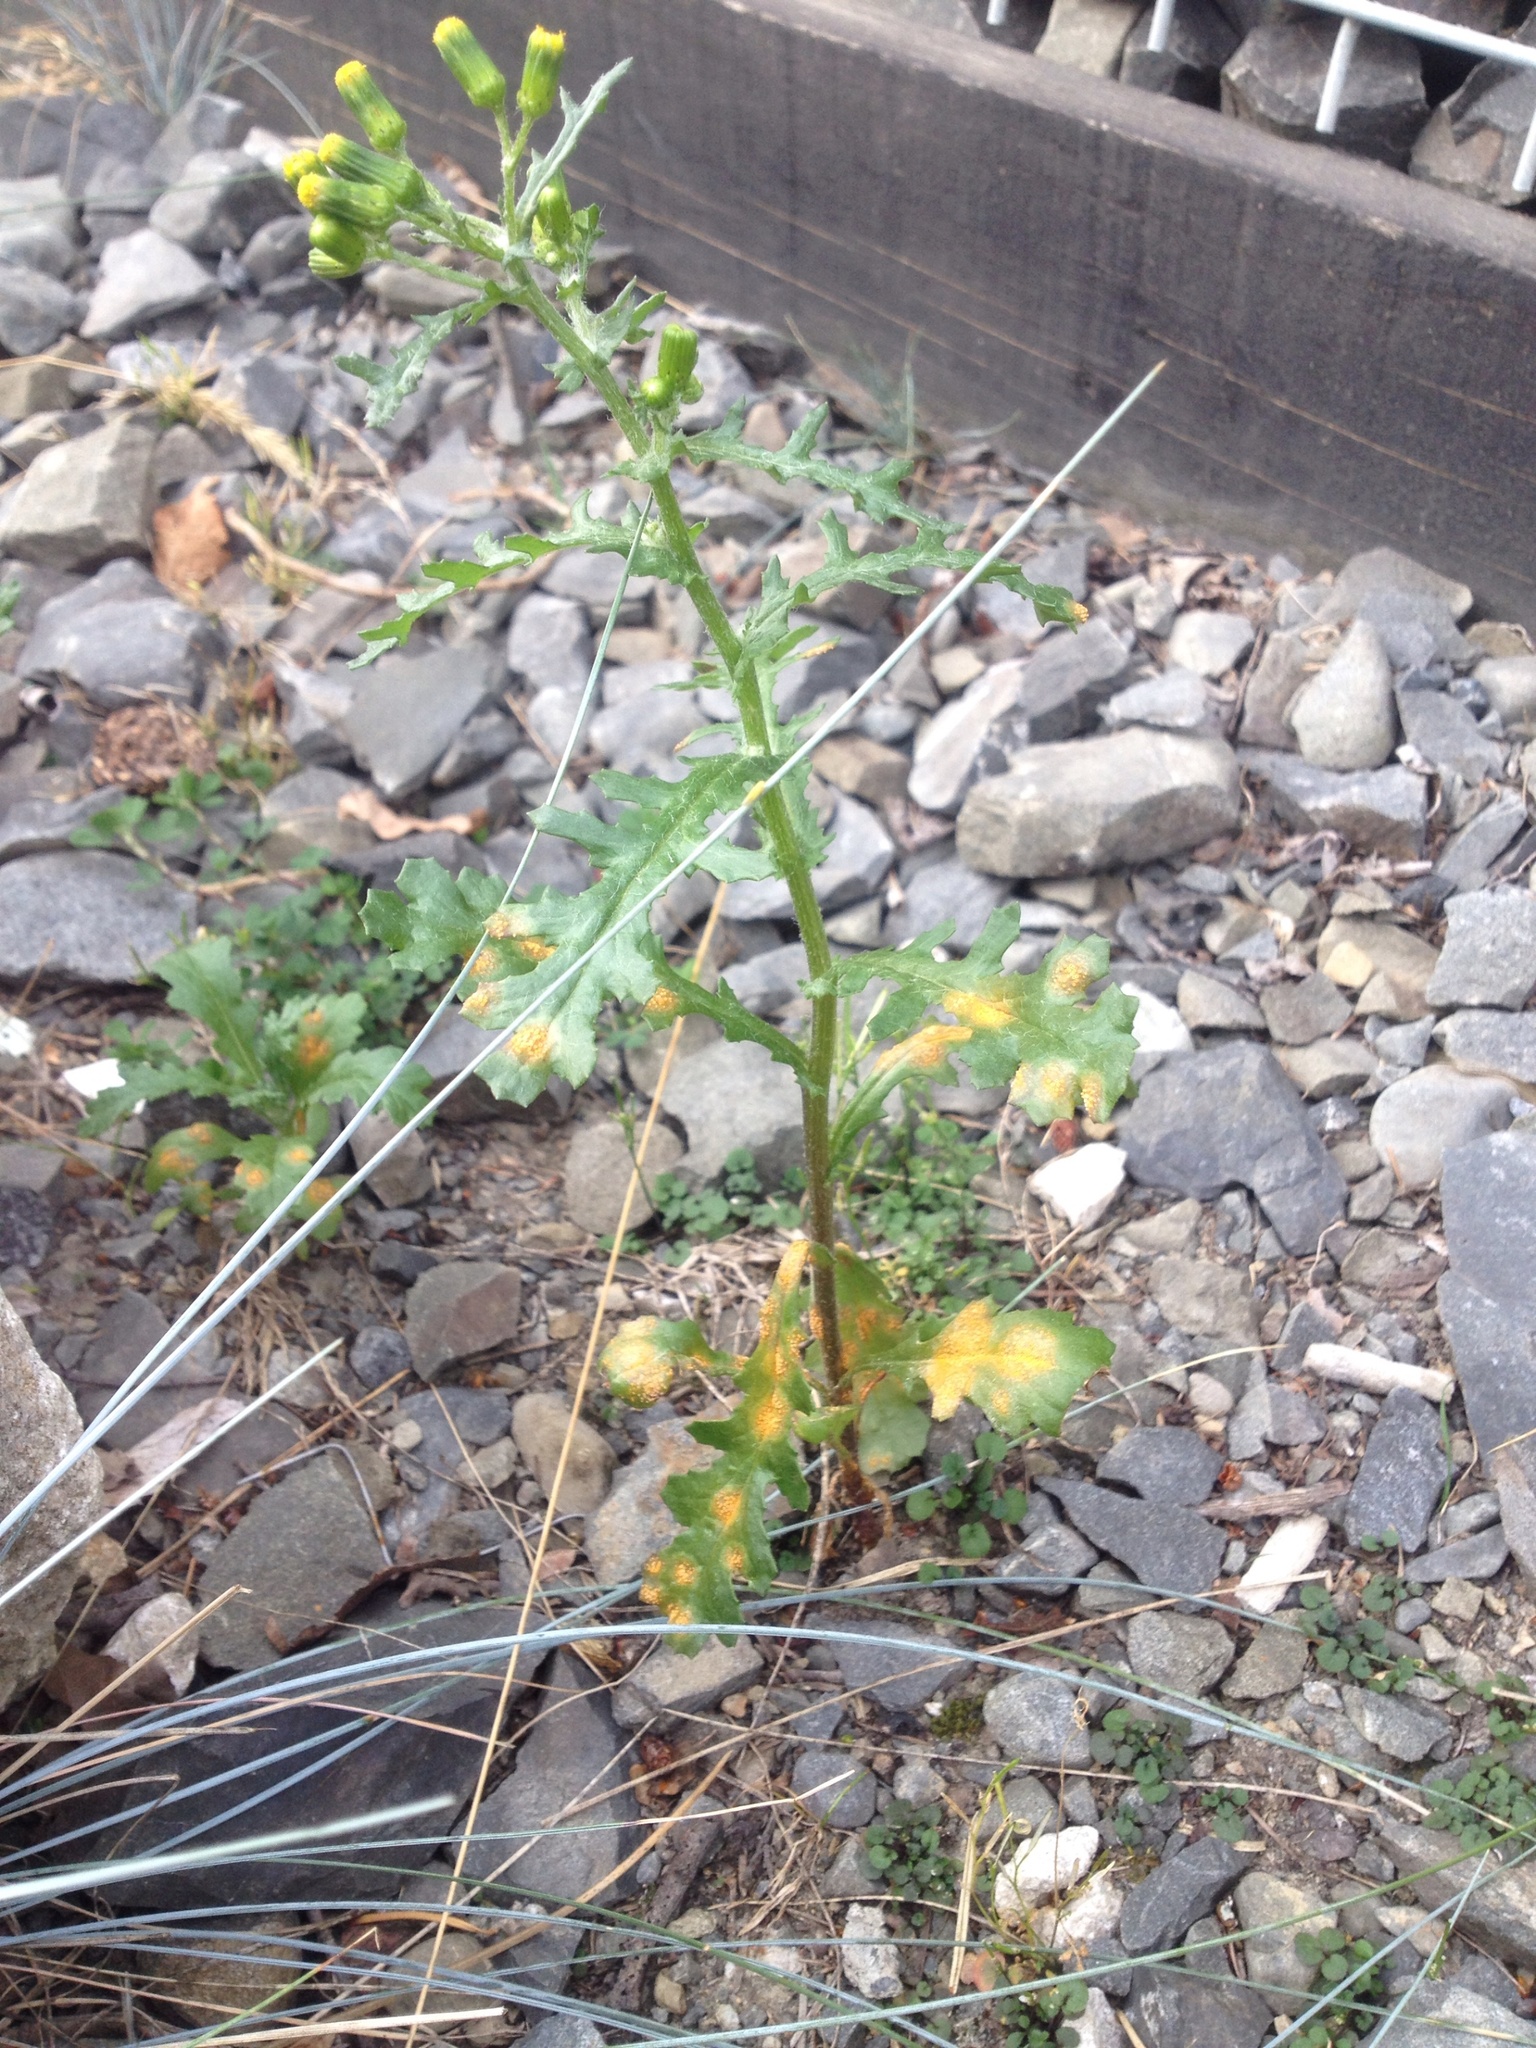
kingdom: Fungi
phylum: Basidiomycota
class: Pucciniomycetes
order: Pucciniales
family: Pucciniaceae
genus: Puccinia
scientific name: Puccinia lagenophorae
